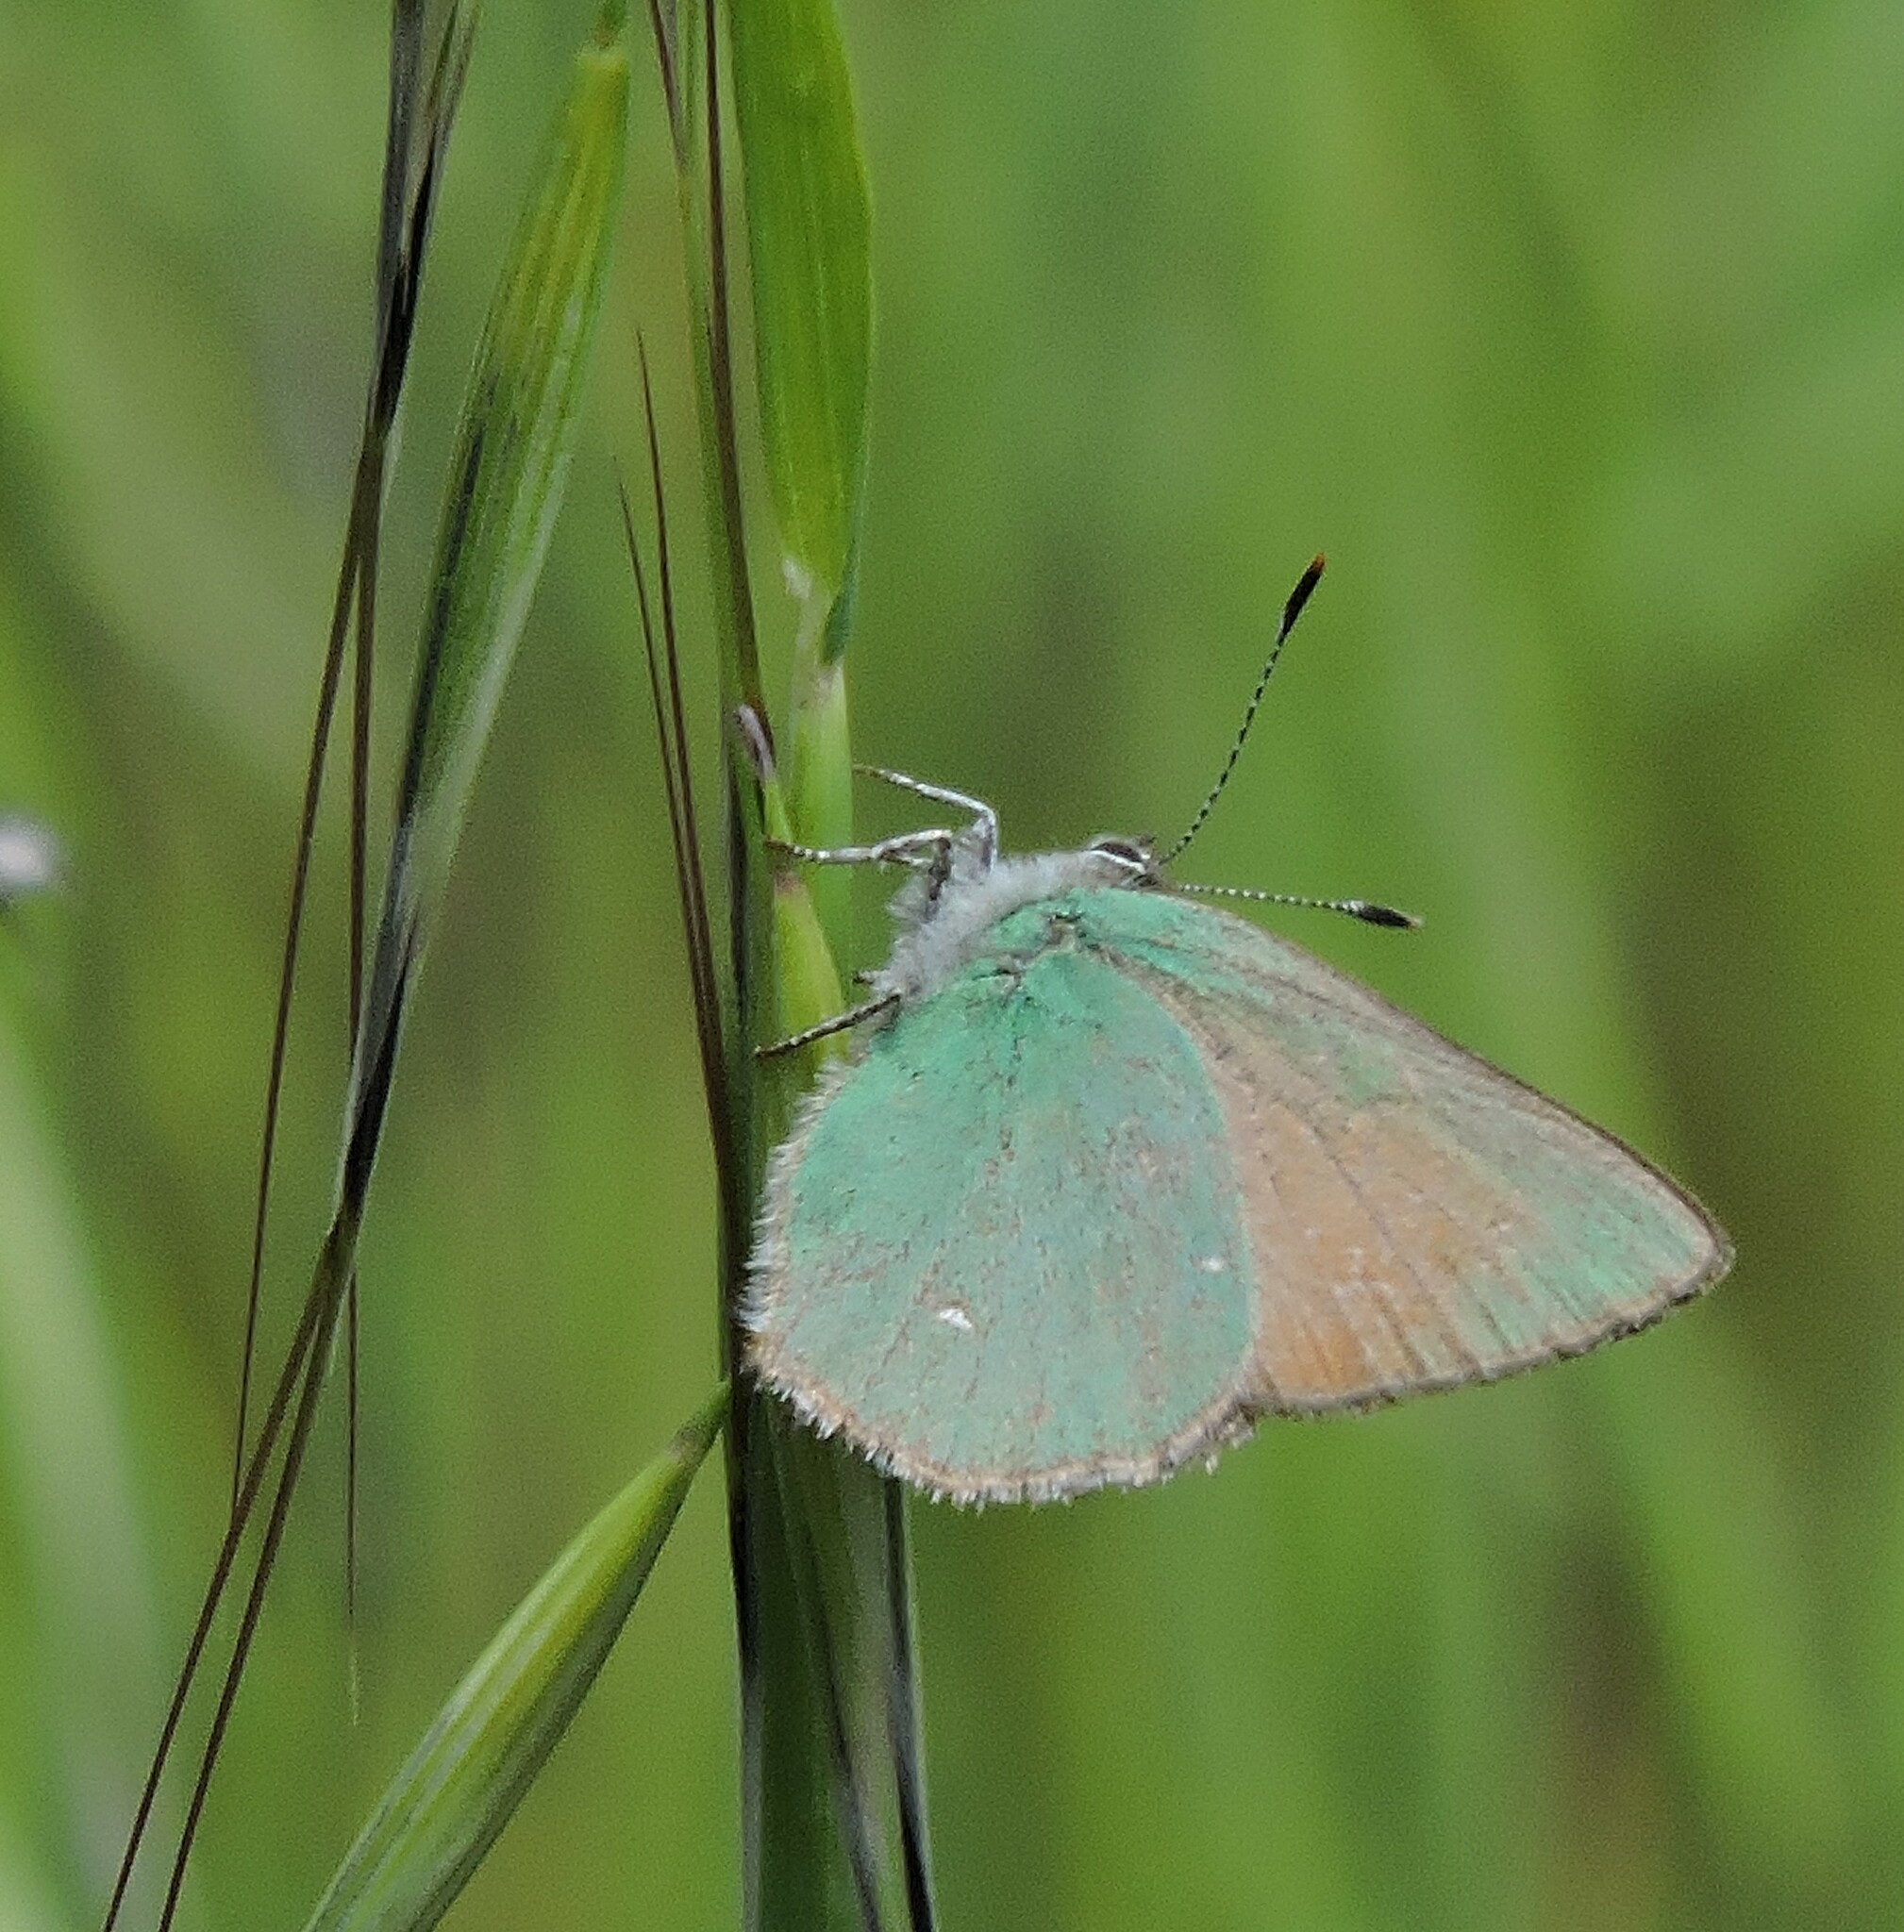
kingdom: Animalia
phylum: Arthropoda
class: Insecta
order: Lepidoptera
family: Lycaenidae
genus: Callophrys
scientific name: Callophrys dumetorum
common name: Bramble hairstreak
